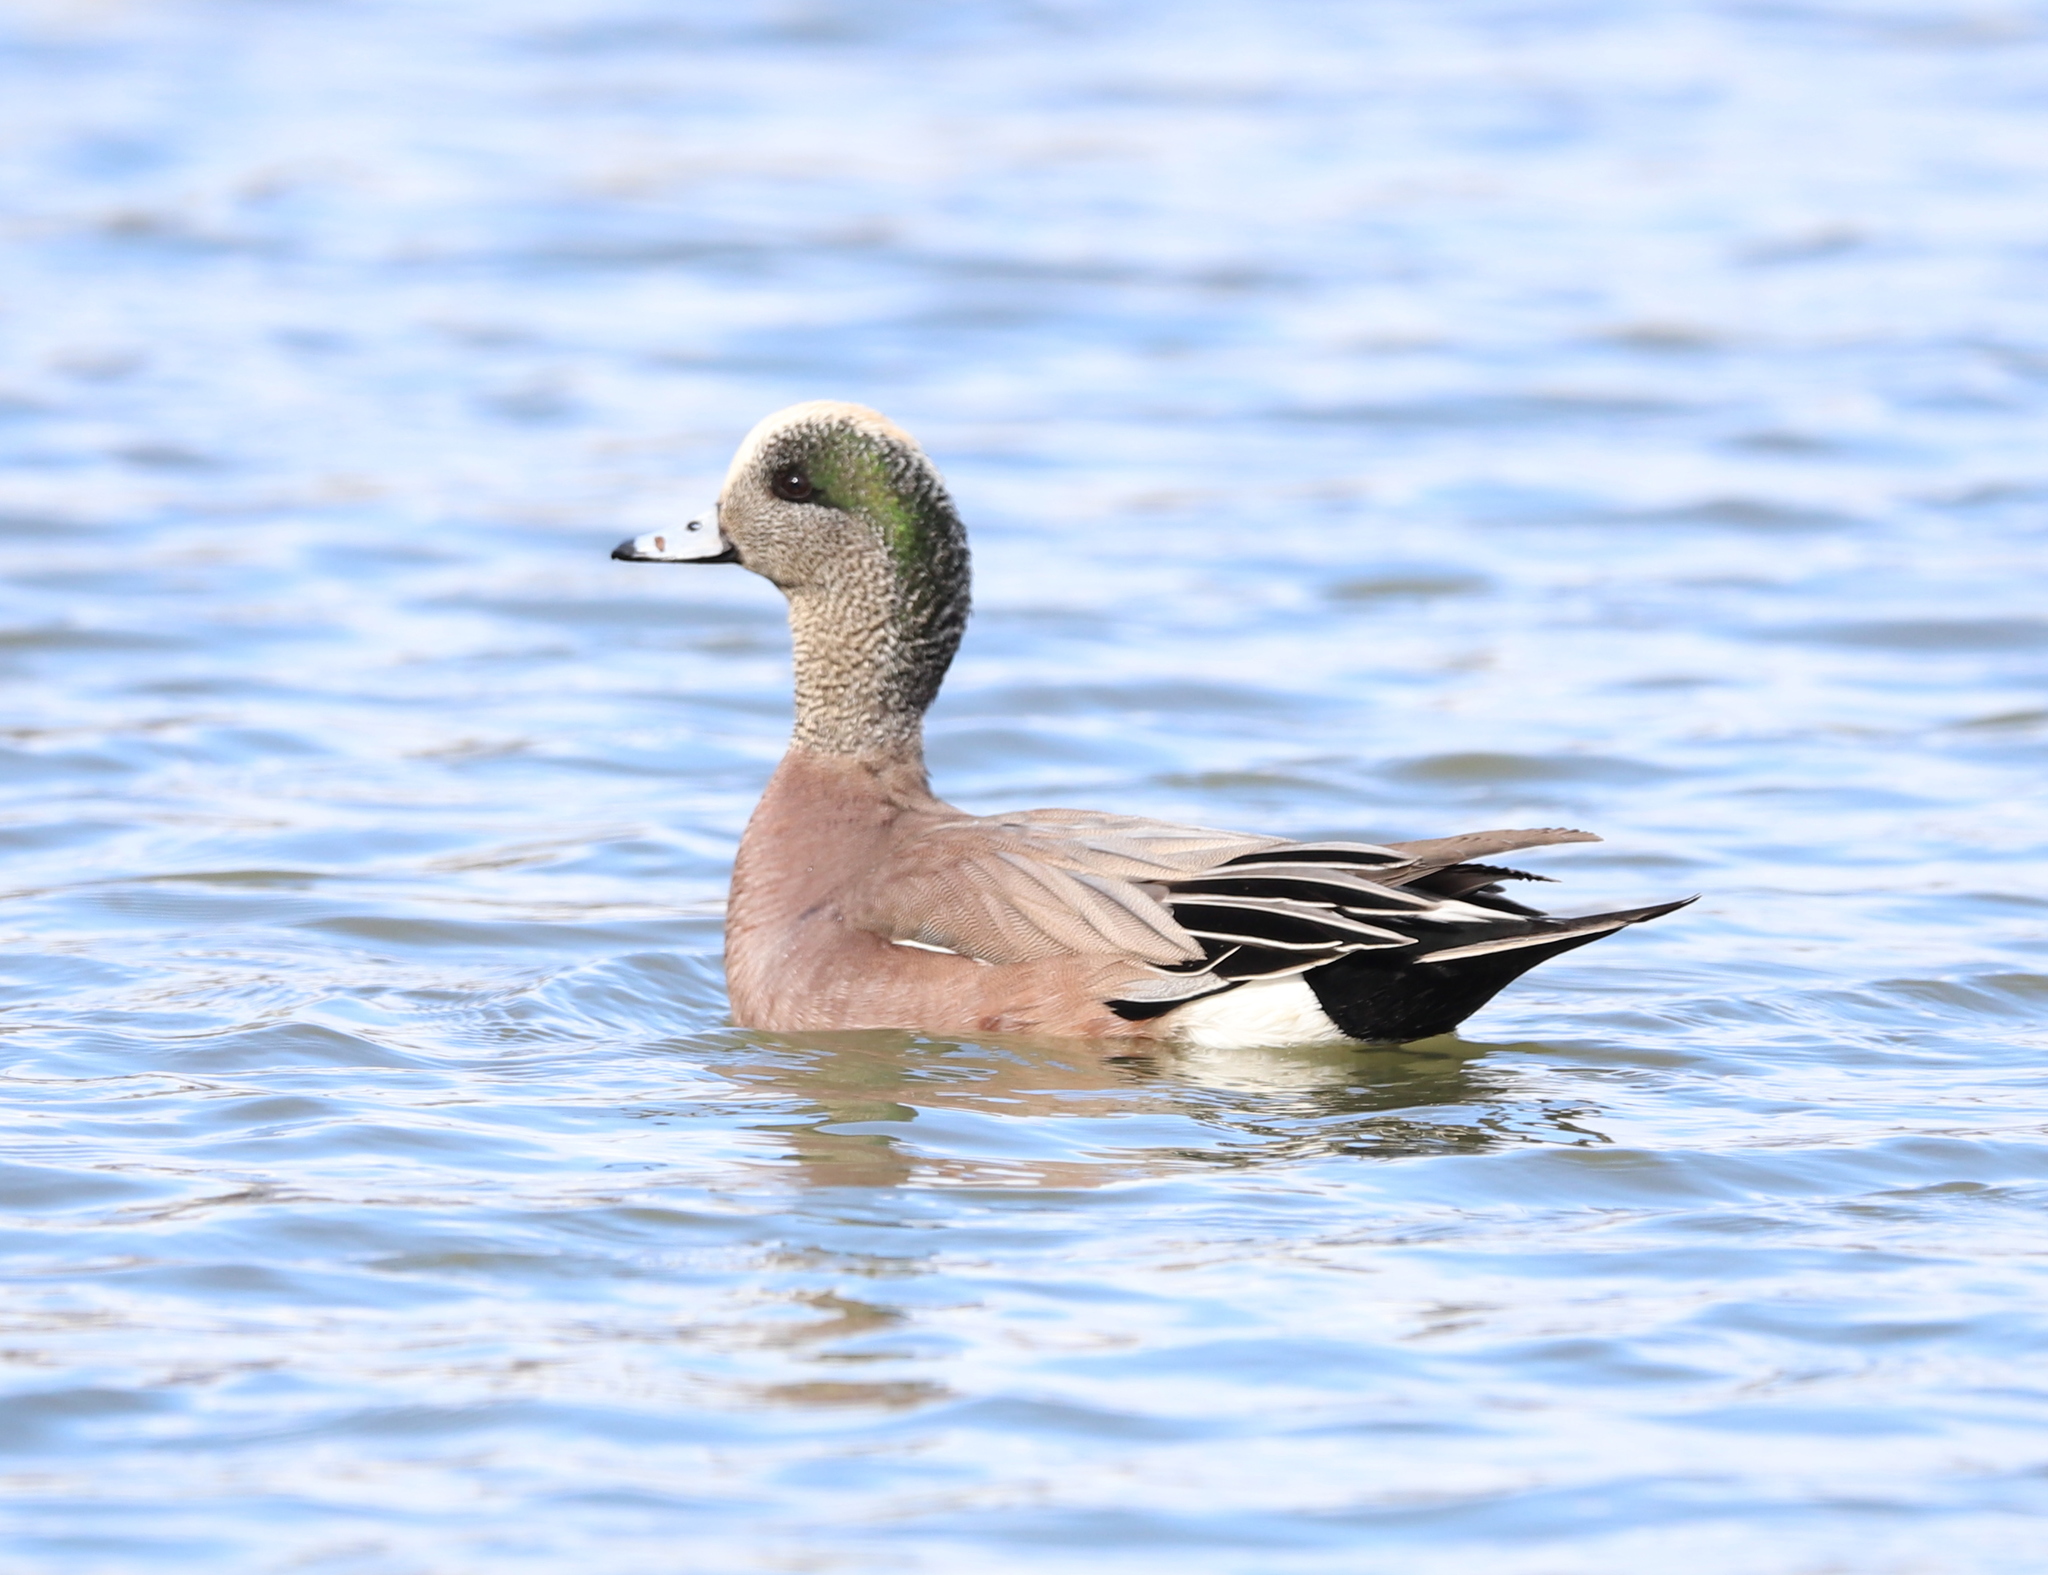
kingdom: Animalia
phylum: Chordata
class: Aves
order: Anseriformes
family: Anatidae
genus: Mareca
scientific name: Mareca americana
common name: American wigeon
